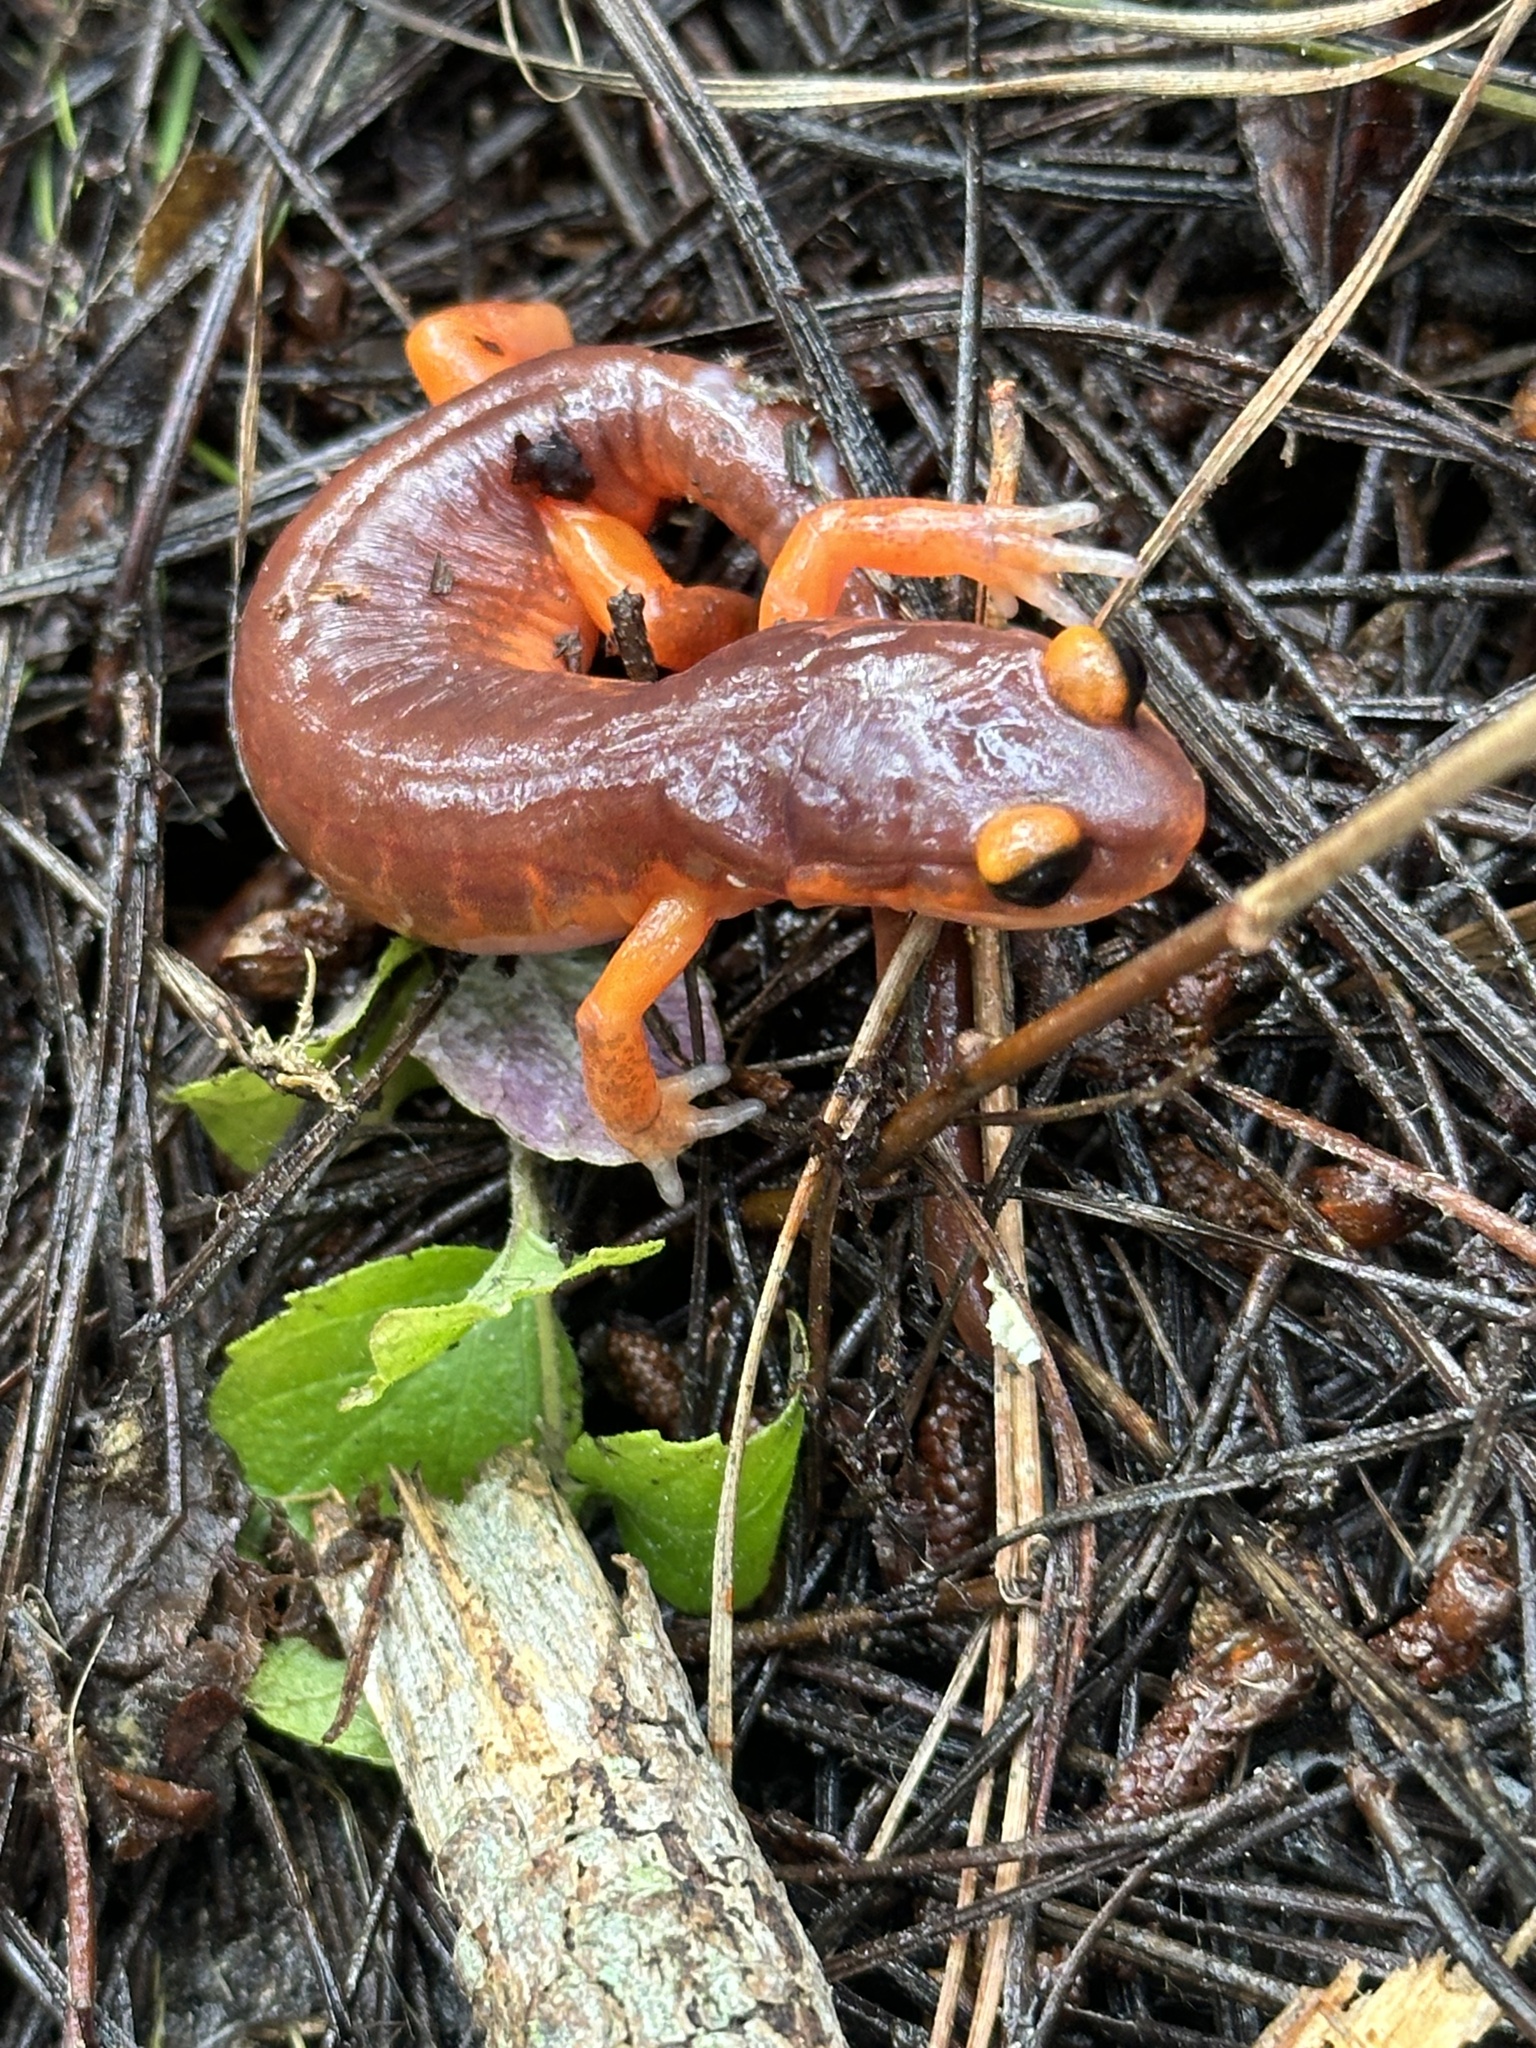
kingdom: Animalia
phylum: Chordata
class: Amphibia
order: Caudata
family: Plethodontidae
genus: Ensatina
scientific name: Ensatina eschscholtzii
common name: Ensatina
